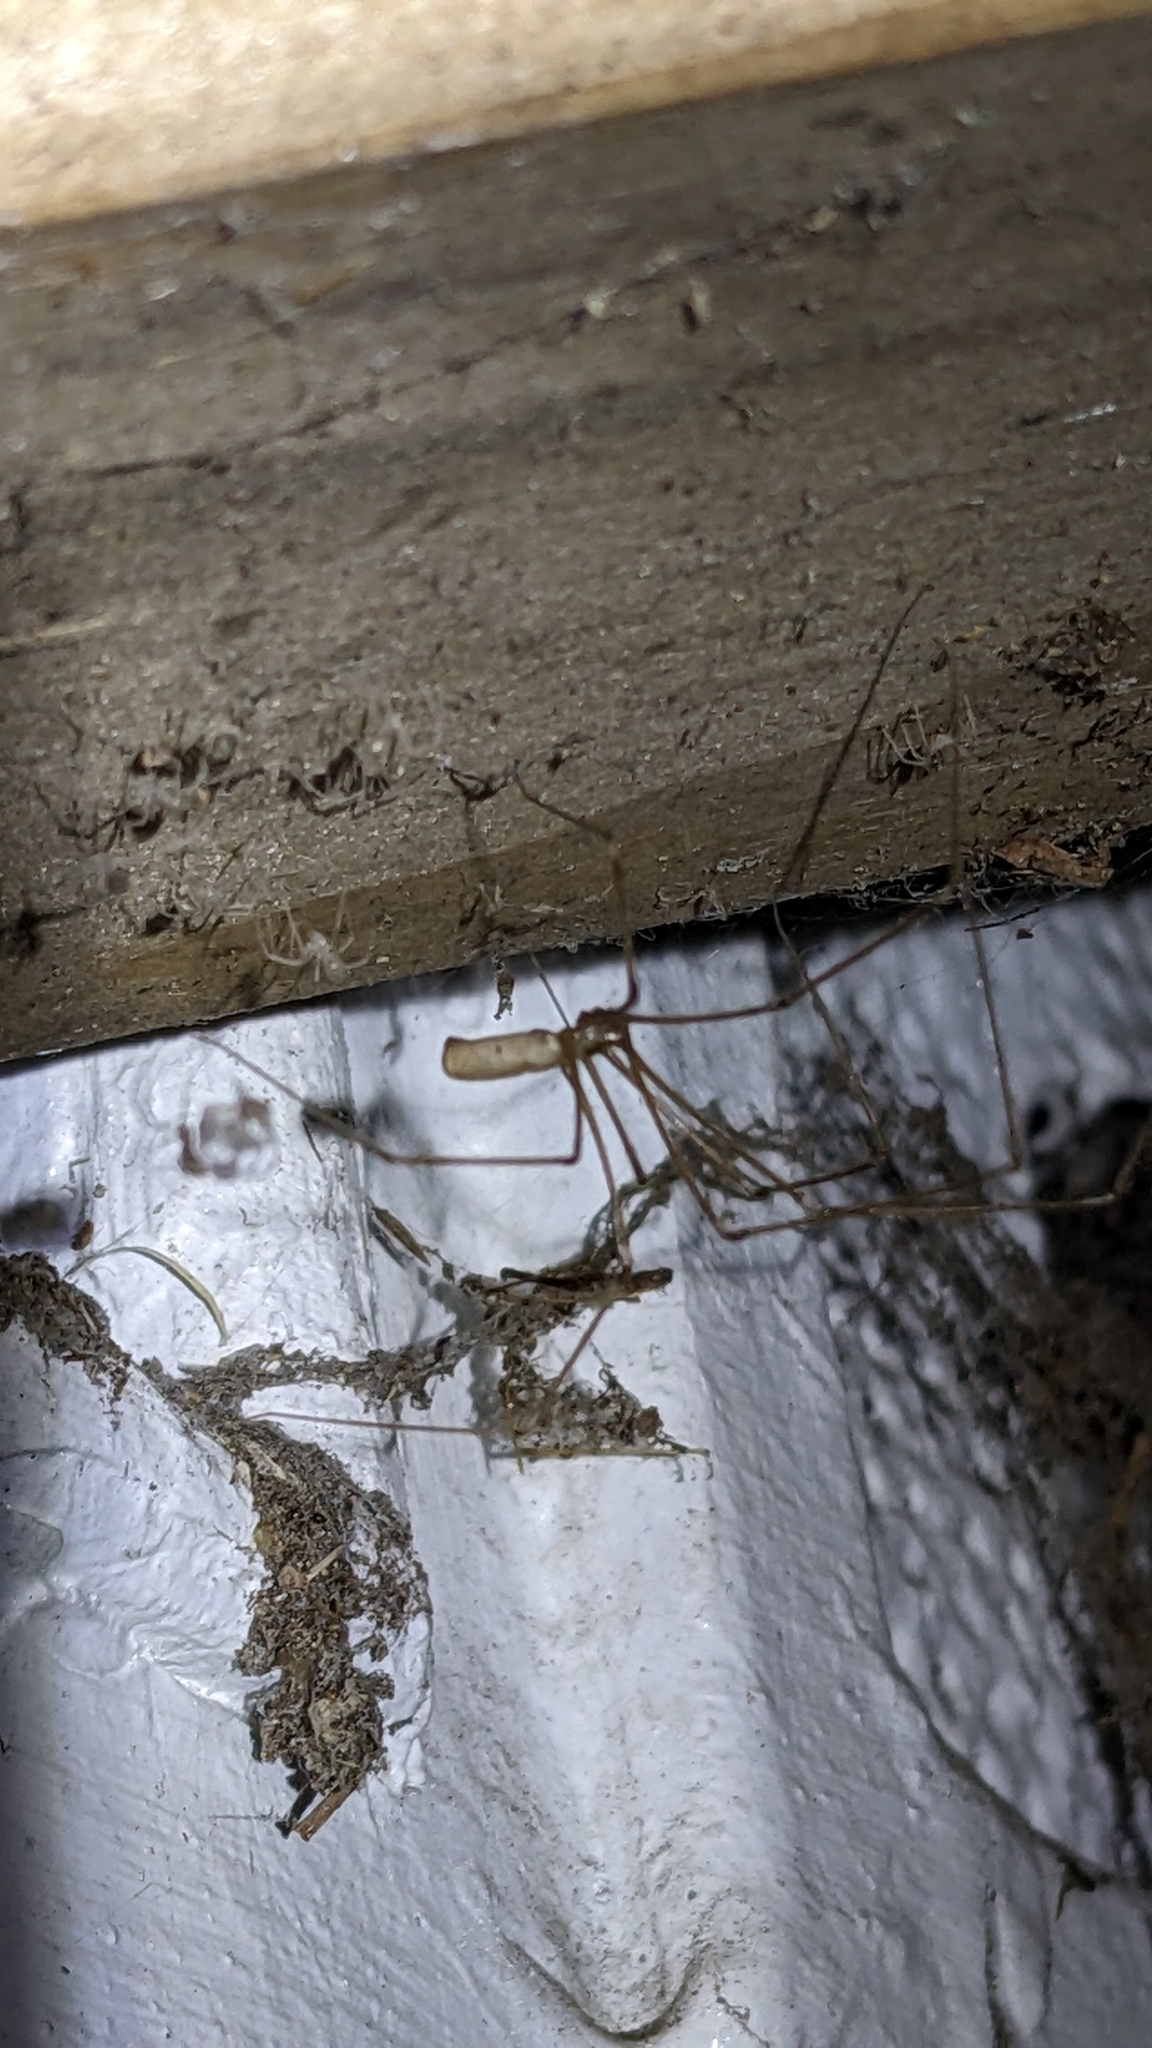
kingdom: Animalia
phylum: Arthropoda
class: Arachnida
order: Araneae
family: Pholcidae
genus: Pholcus
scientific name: Pholcus phalangioides
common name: Longbodied cellar spider
